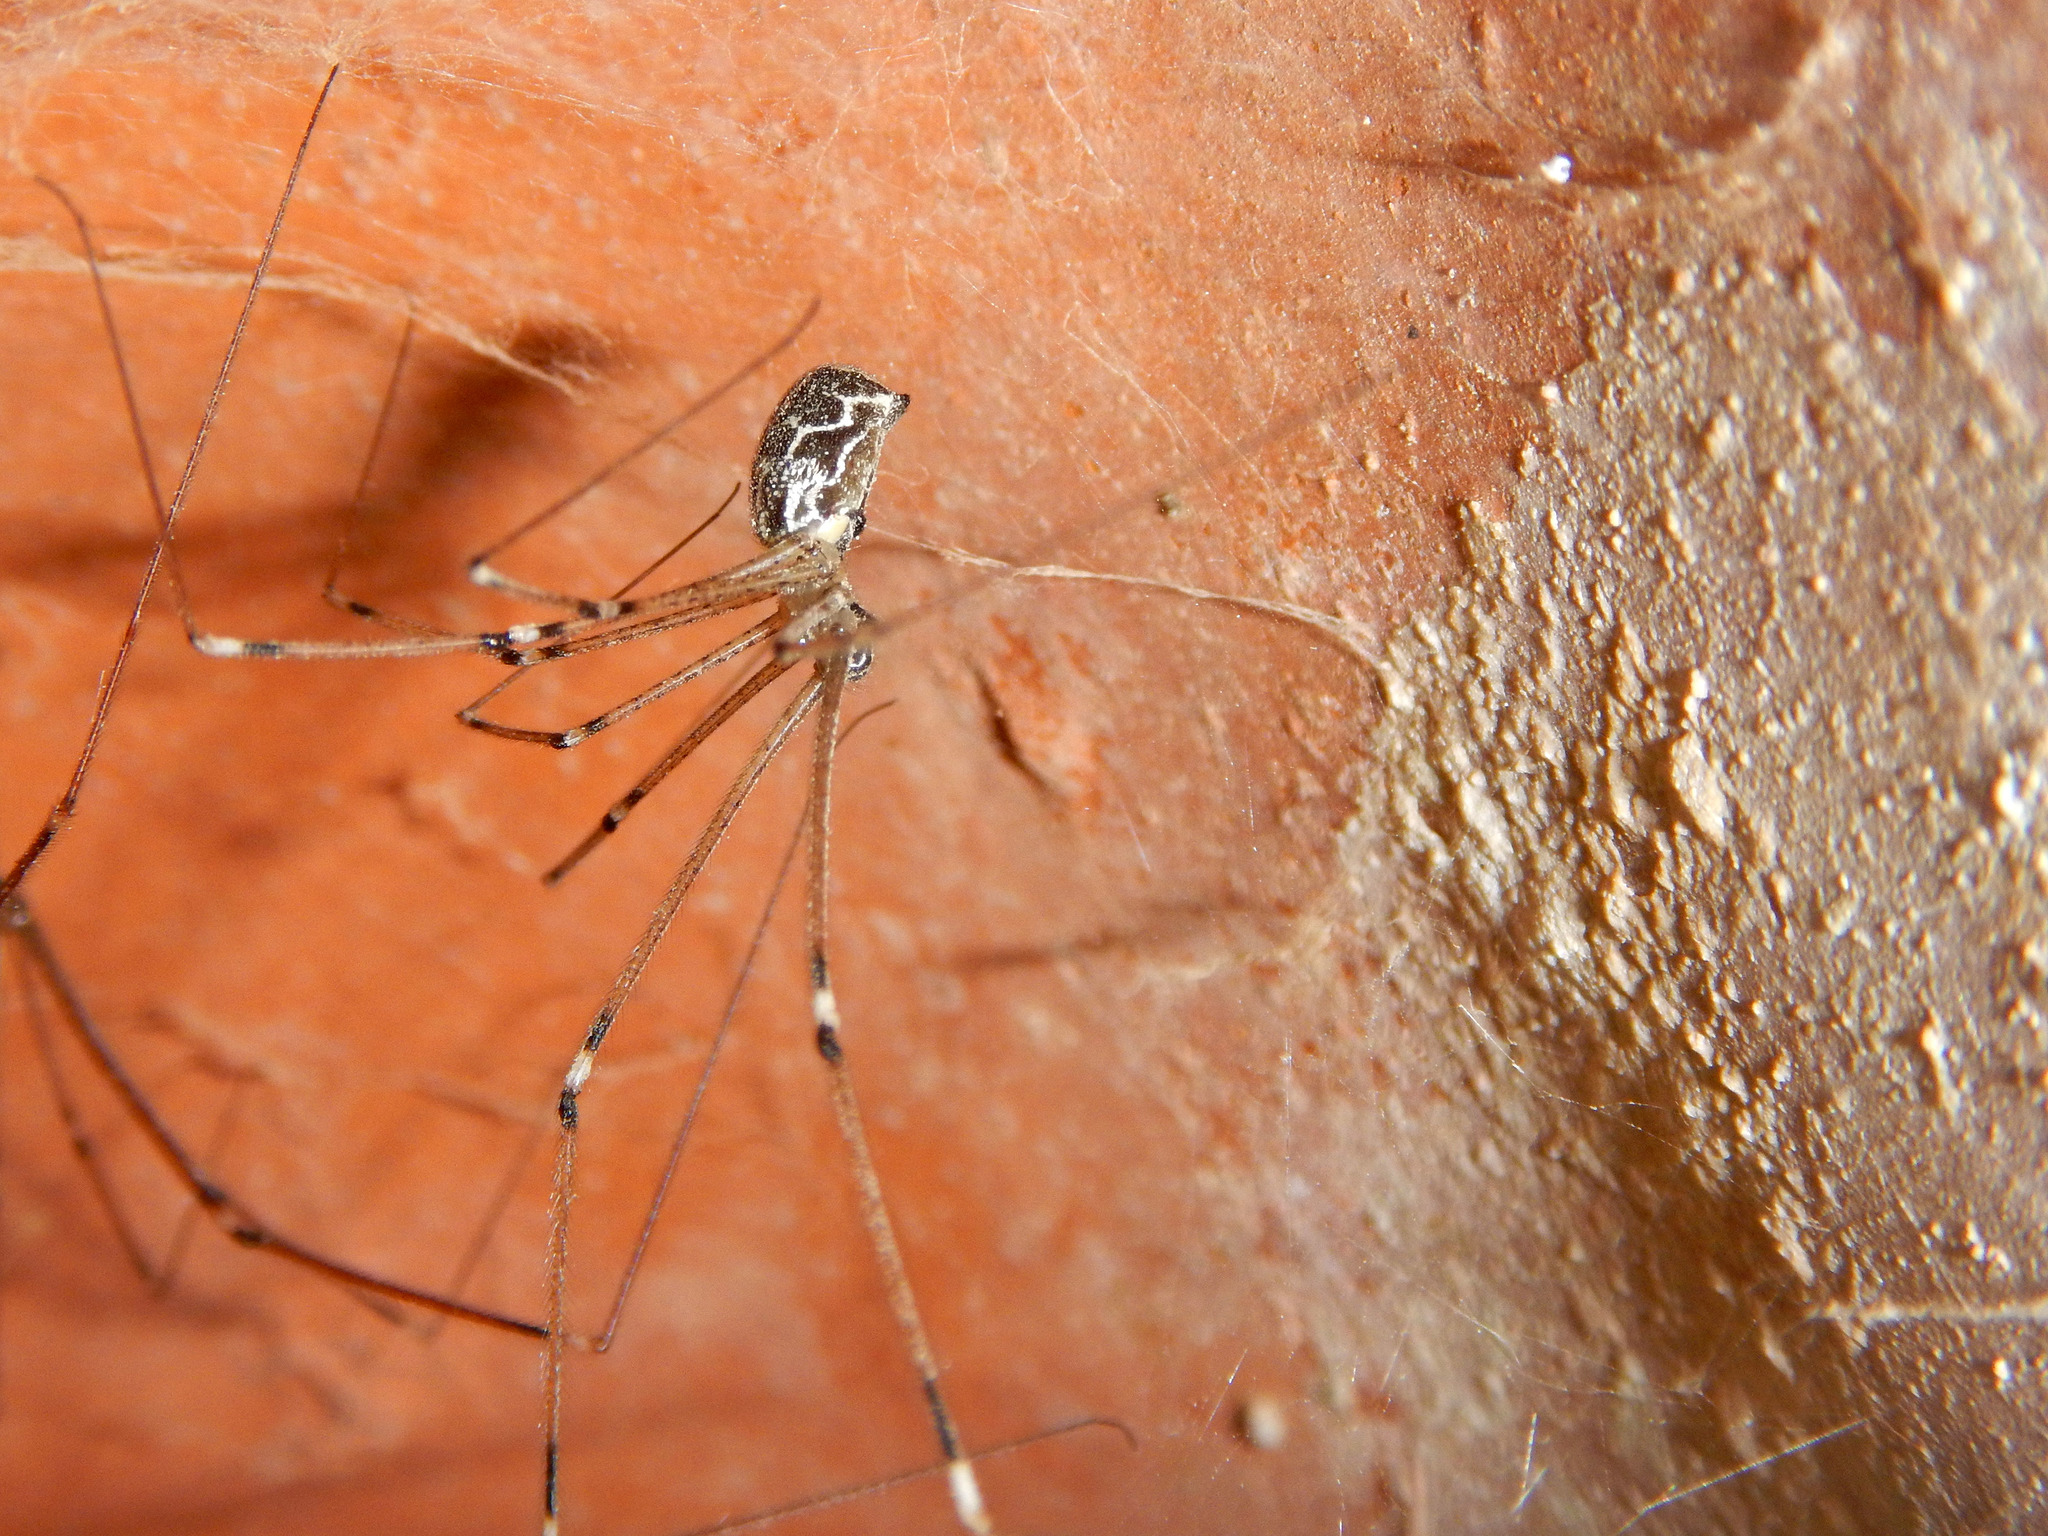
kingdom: Animalia
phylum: Arthropoda
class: Arachnida
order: Araneae
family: Pholcidae
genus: Holocnemus
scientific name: Holocnemus pluchei
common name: Marbled cellar spider
